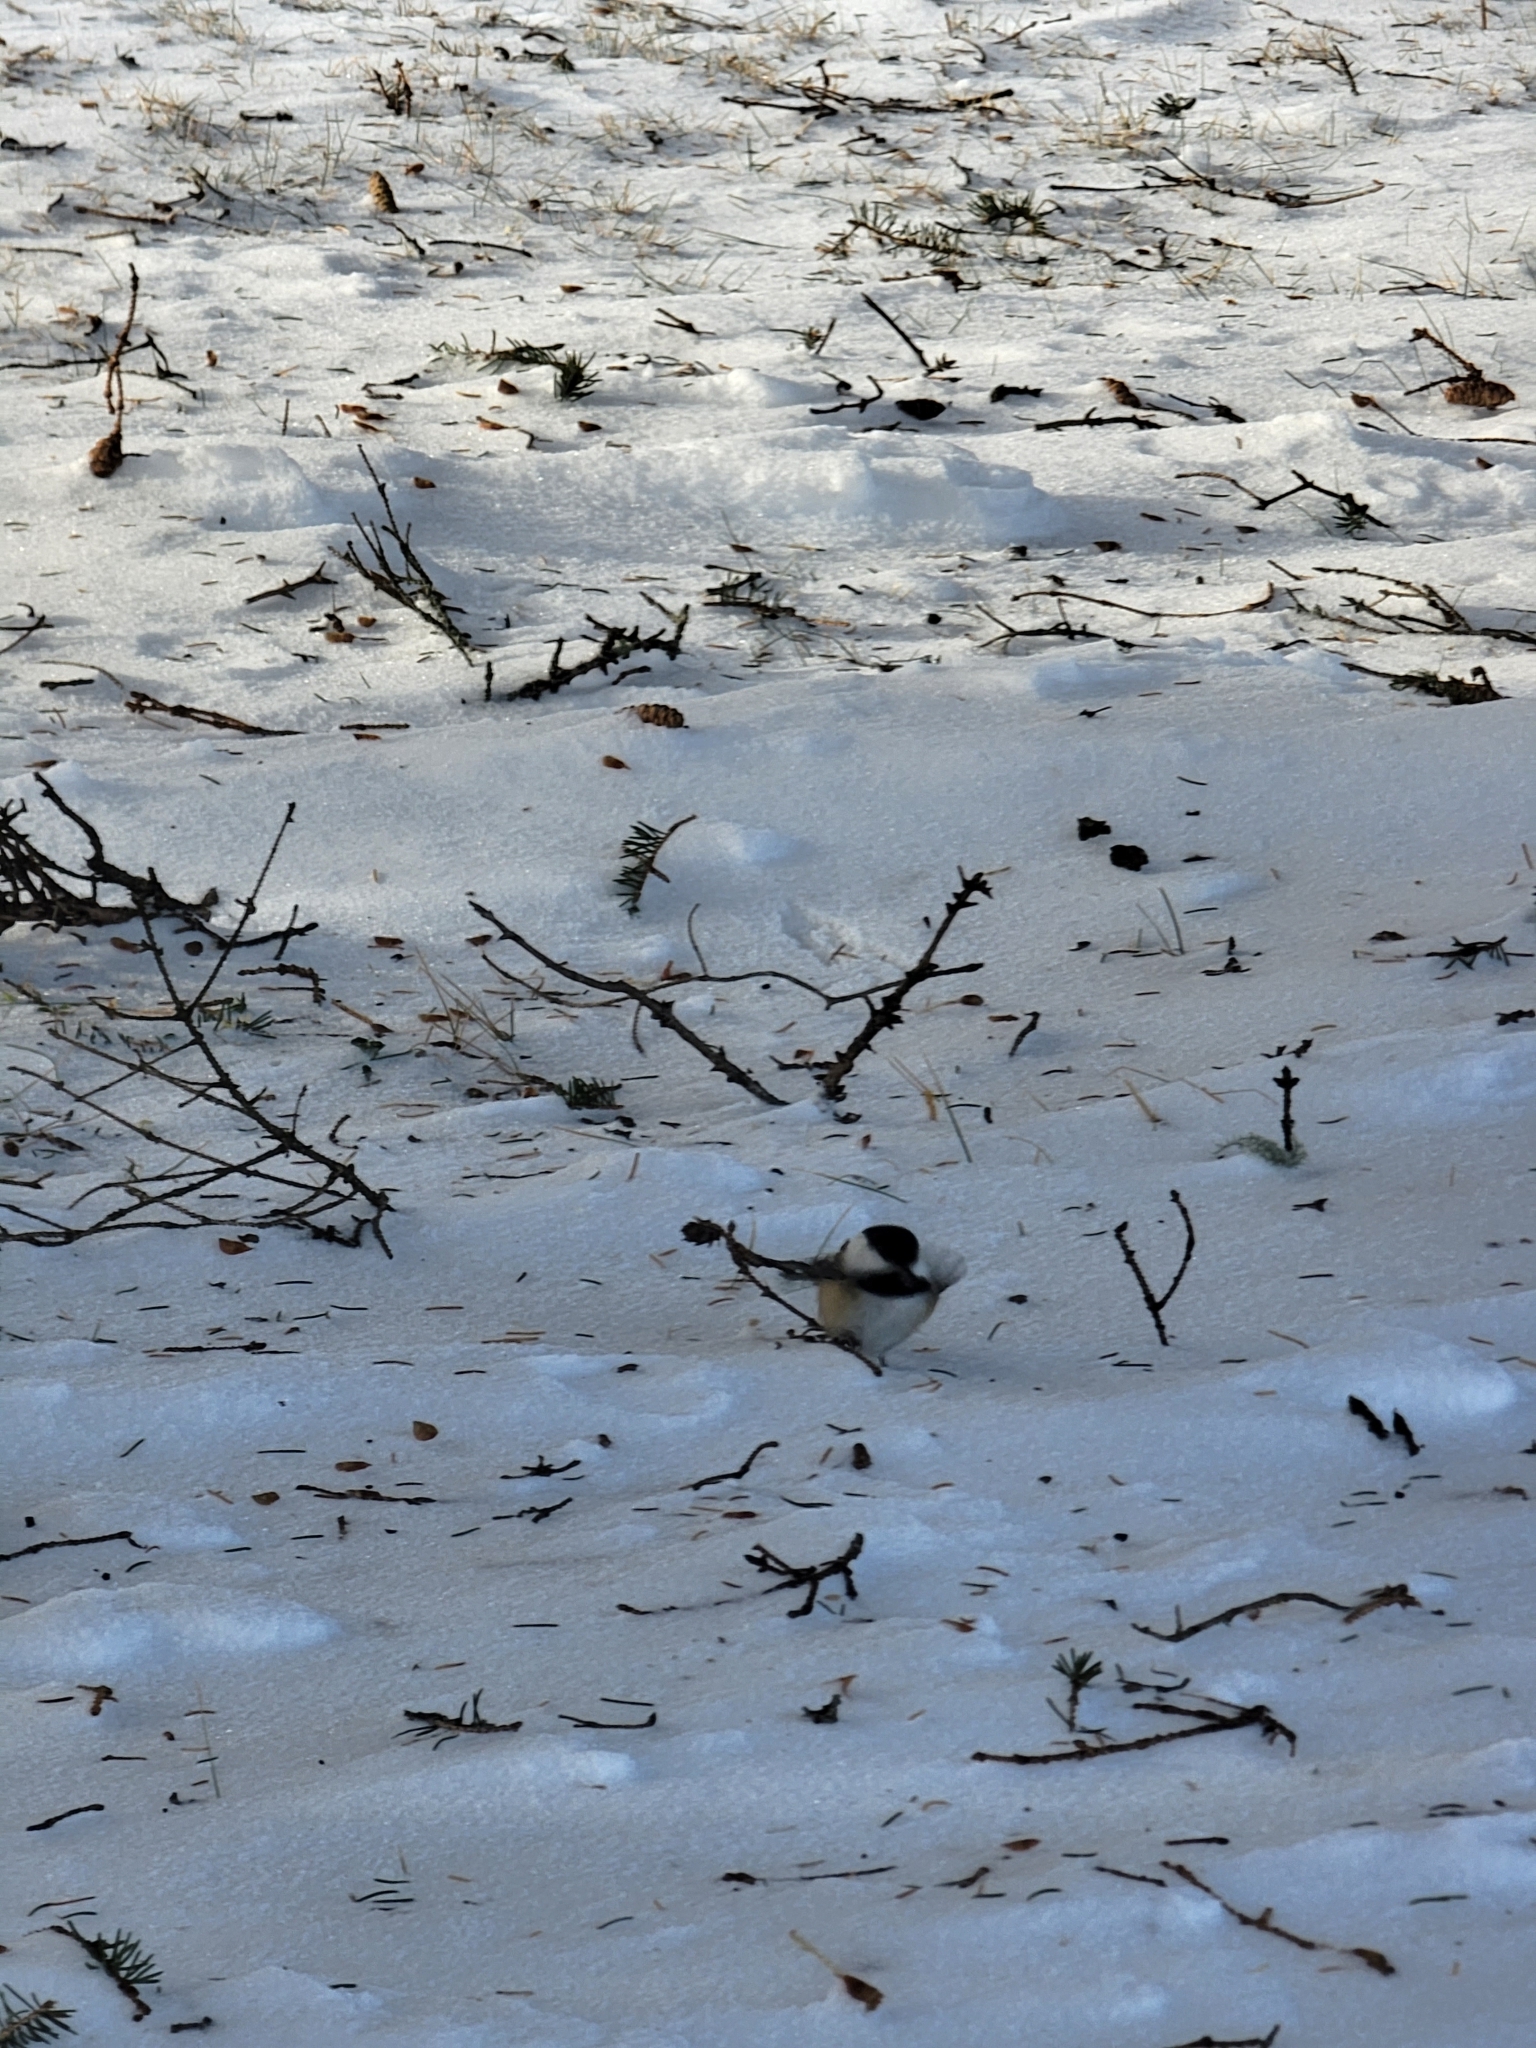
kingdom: Animalia
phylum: Chordata
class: Aves
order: Passeriformes
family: Paridae
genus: Poecile
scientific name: Poecile atricapillus
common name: Black-capped chickadee
